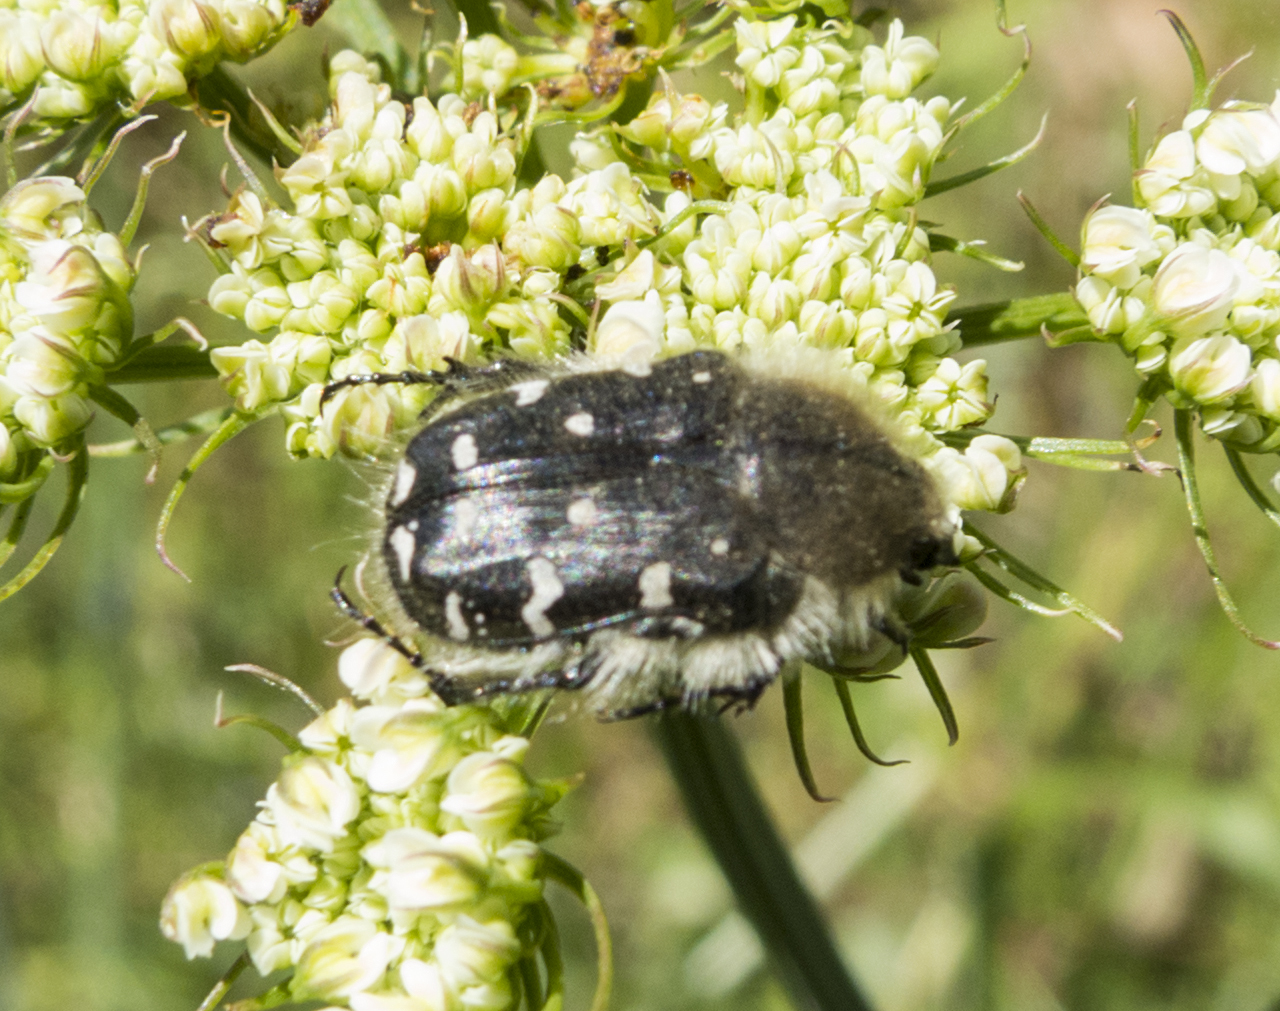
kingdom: Animalia
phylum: Arthropoda
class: Insecta
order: Coleoptera
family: Scarabaeidae
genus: Tropinota
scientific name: Tropinota hirta
